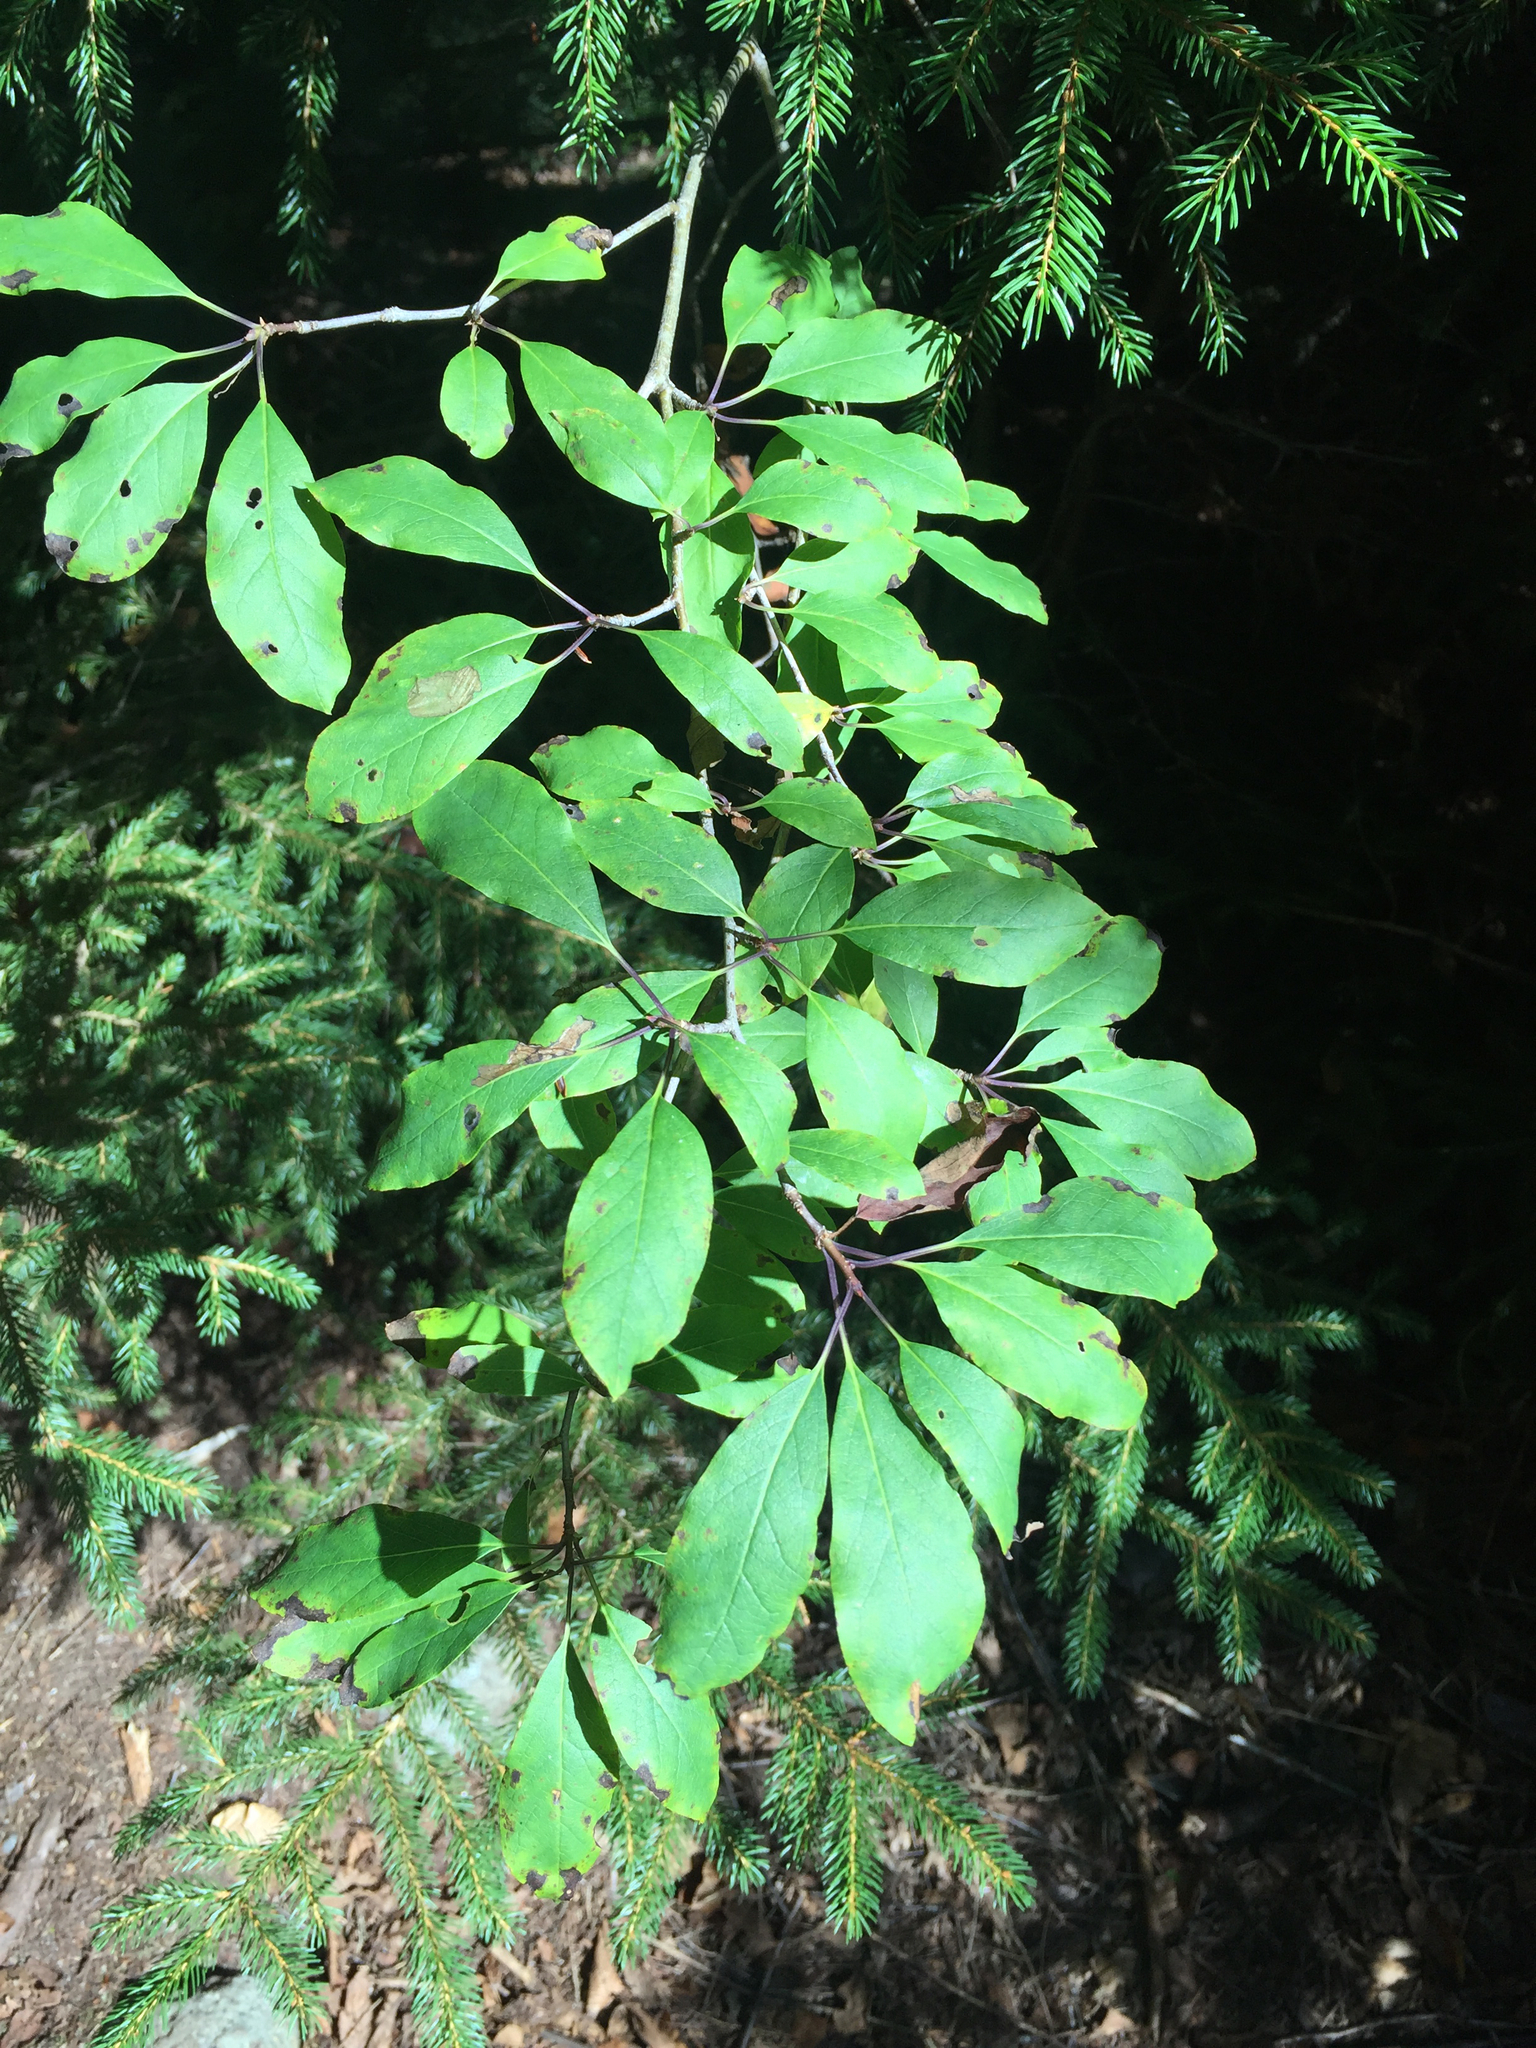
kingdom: Plantae
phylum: Tracheophyta
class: Magnoliopsida
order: Aquifoliales
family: Aquifoliaceae
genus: Ilex
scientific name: Ilex mucronata
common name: Catberry
